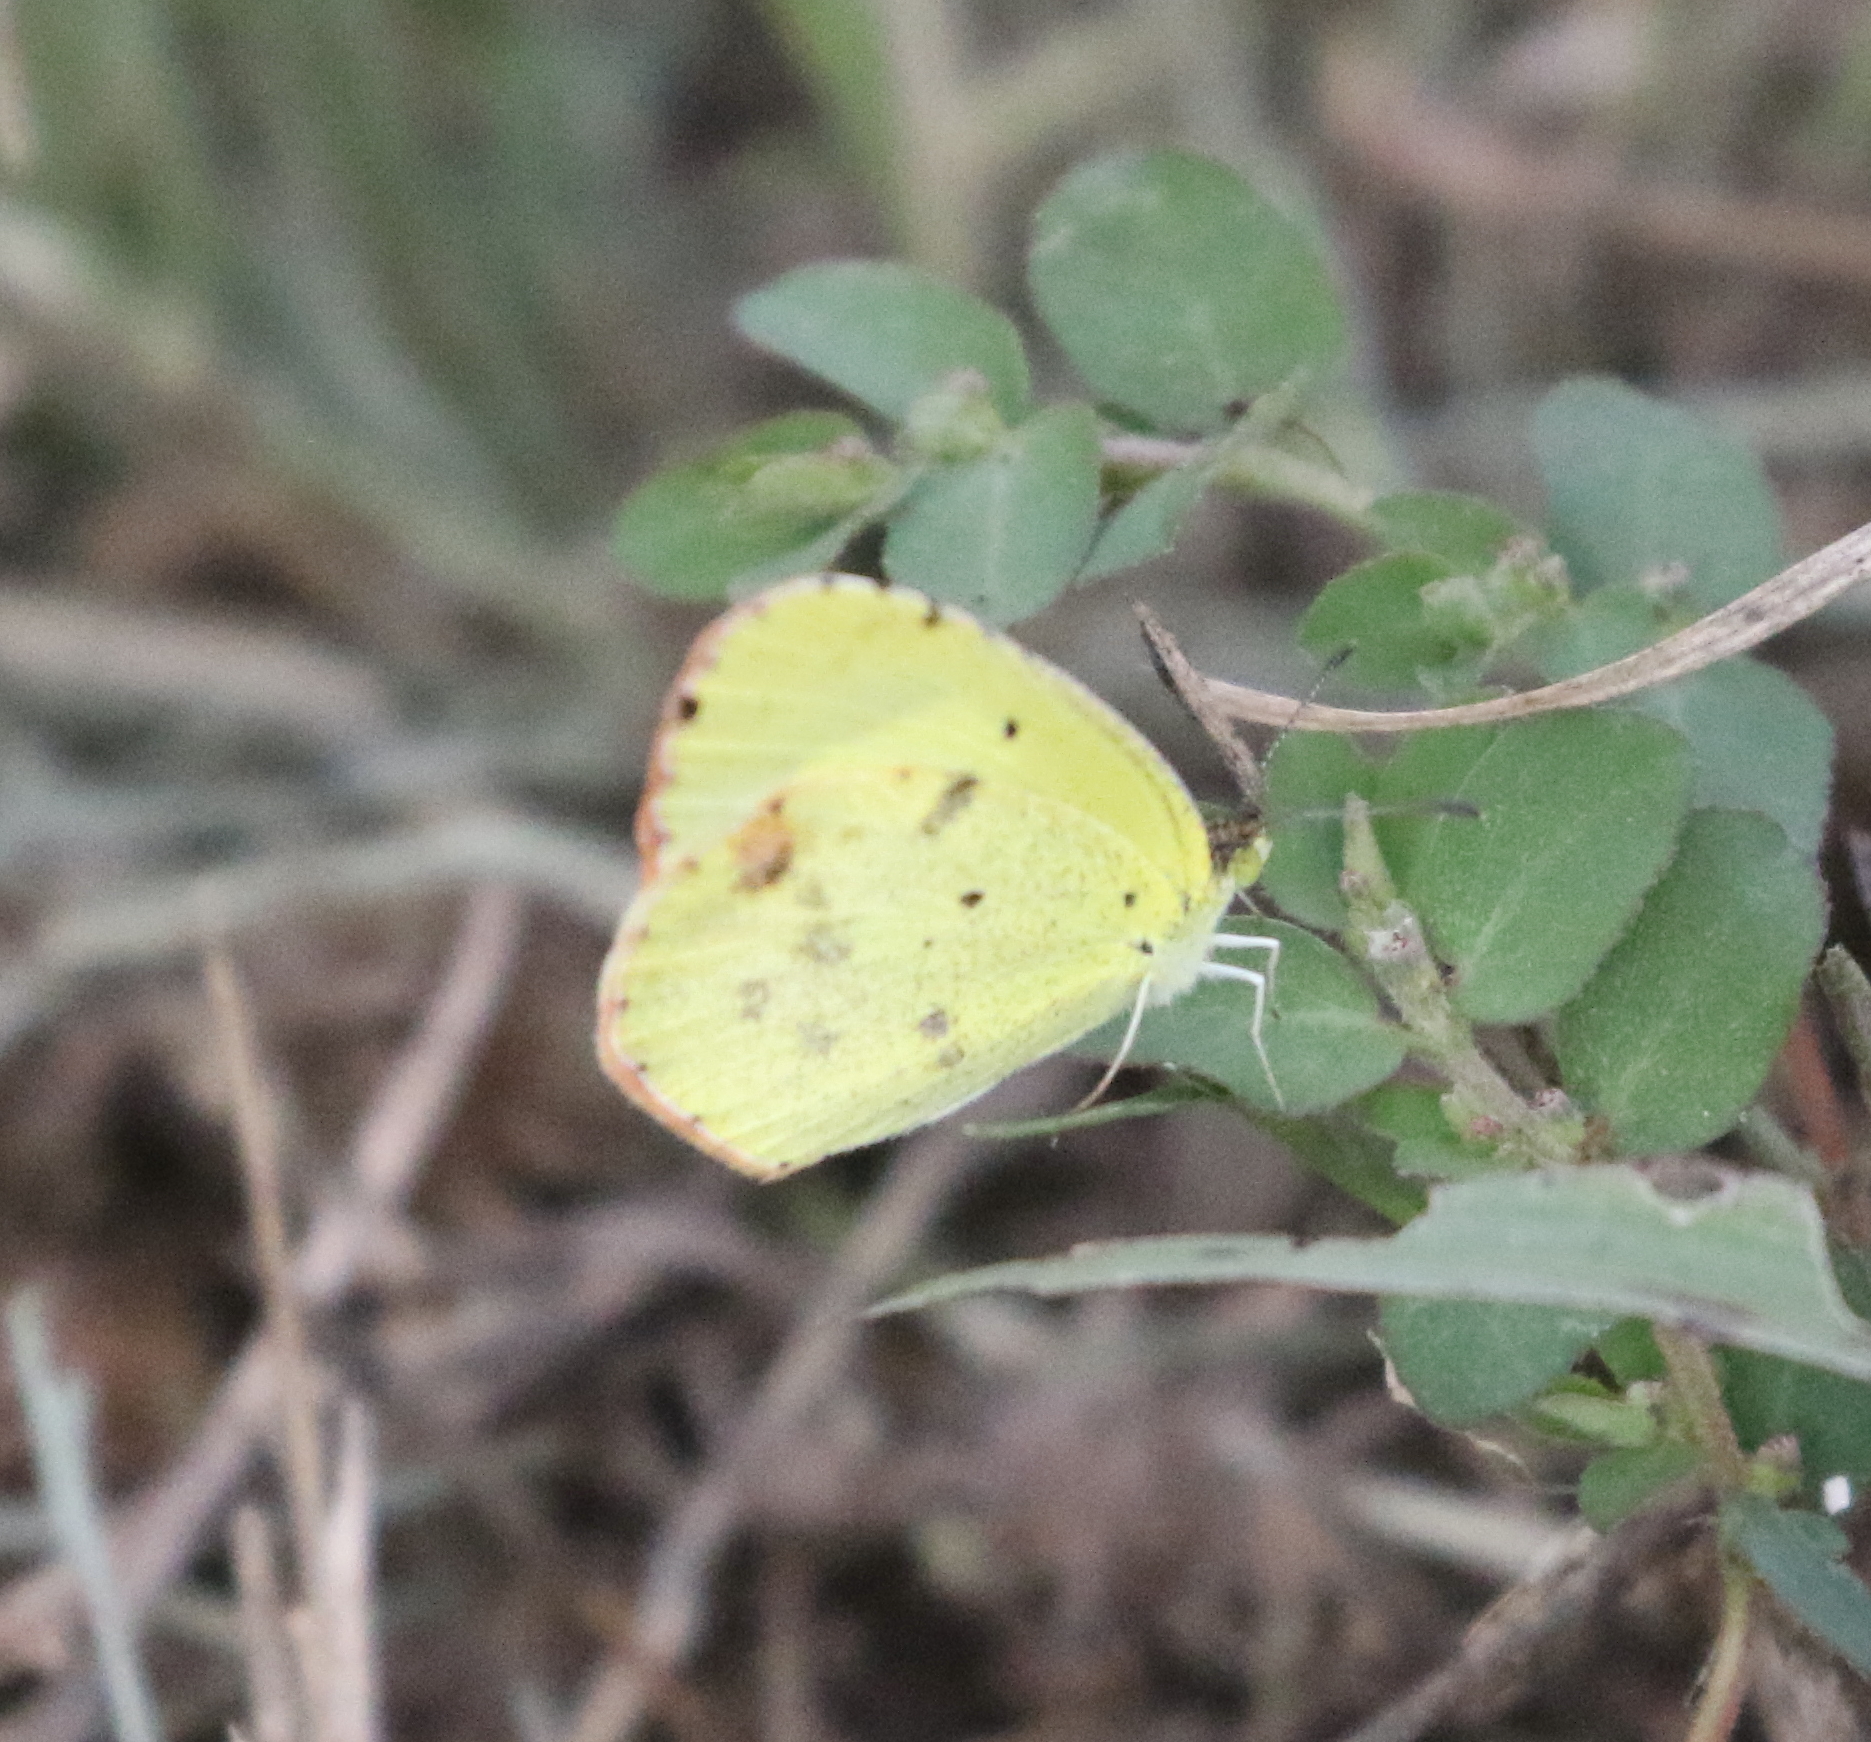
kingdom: Animalia
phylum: Arthropoda
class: Insecta
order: Lepidoptera
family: Pieridae
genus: Pyrisitia
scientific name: Pyrisitia lisa
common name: Little yellow
